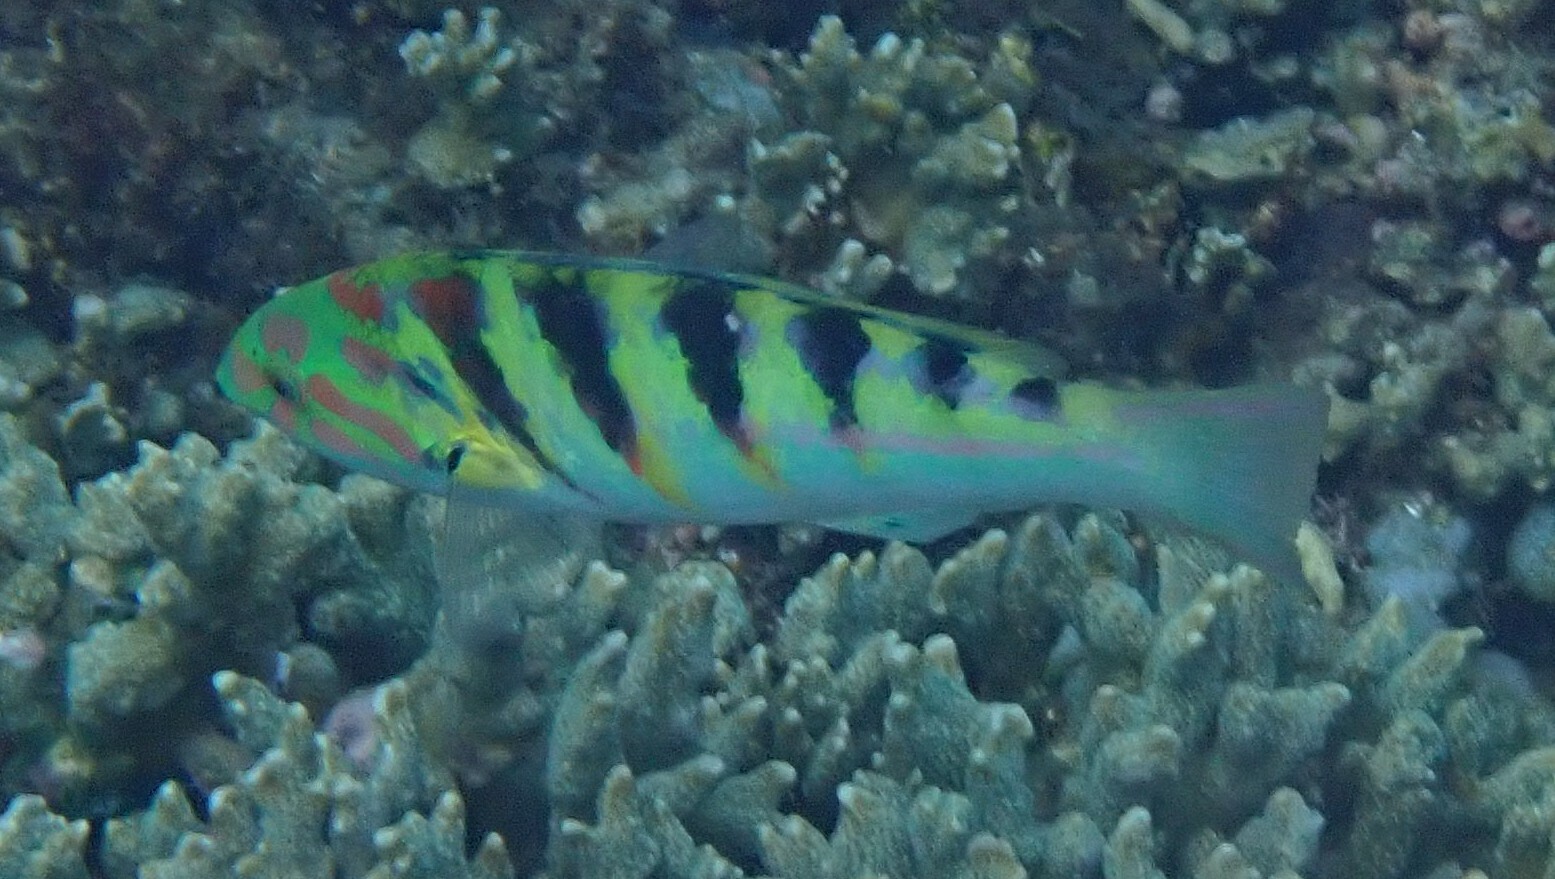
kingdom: Animalia
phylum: Chordata
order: Perciformes
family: Labridae
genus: Thalassoma
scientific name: Thalassoma hardwicke
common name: Sixbar wrasse
